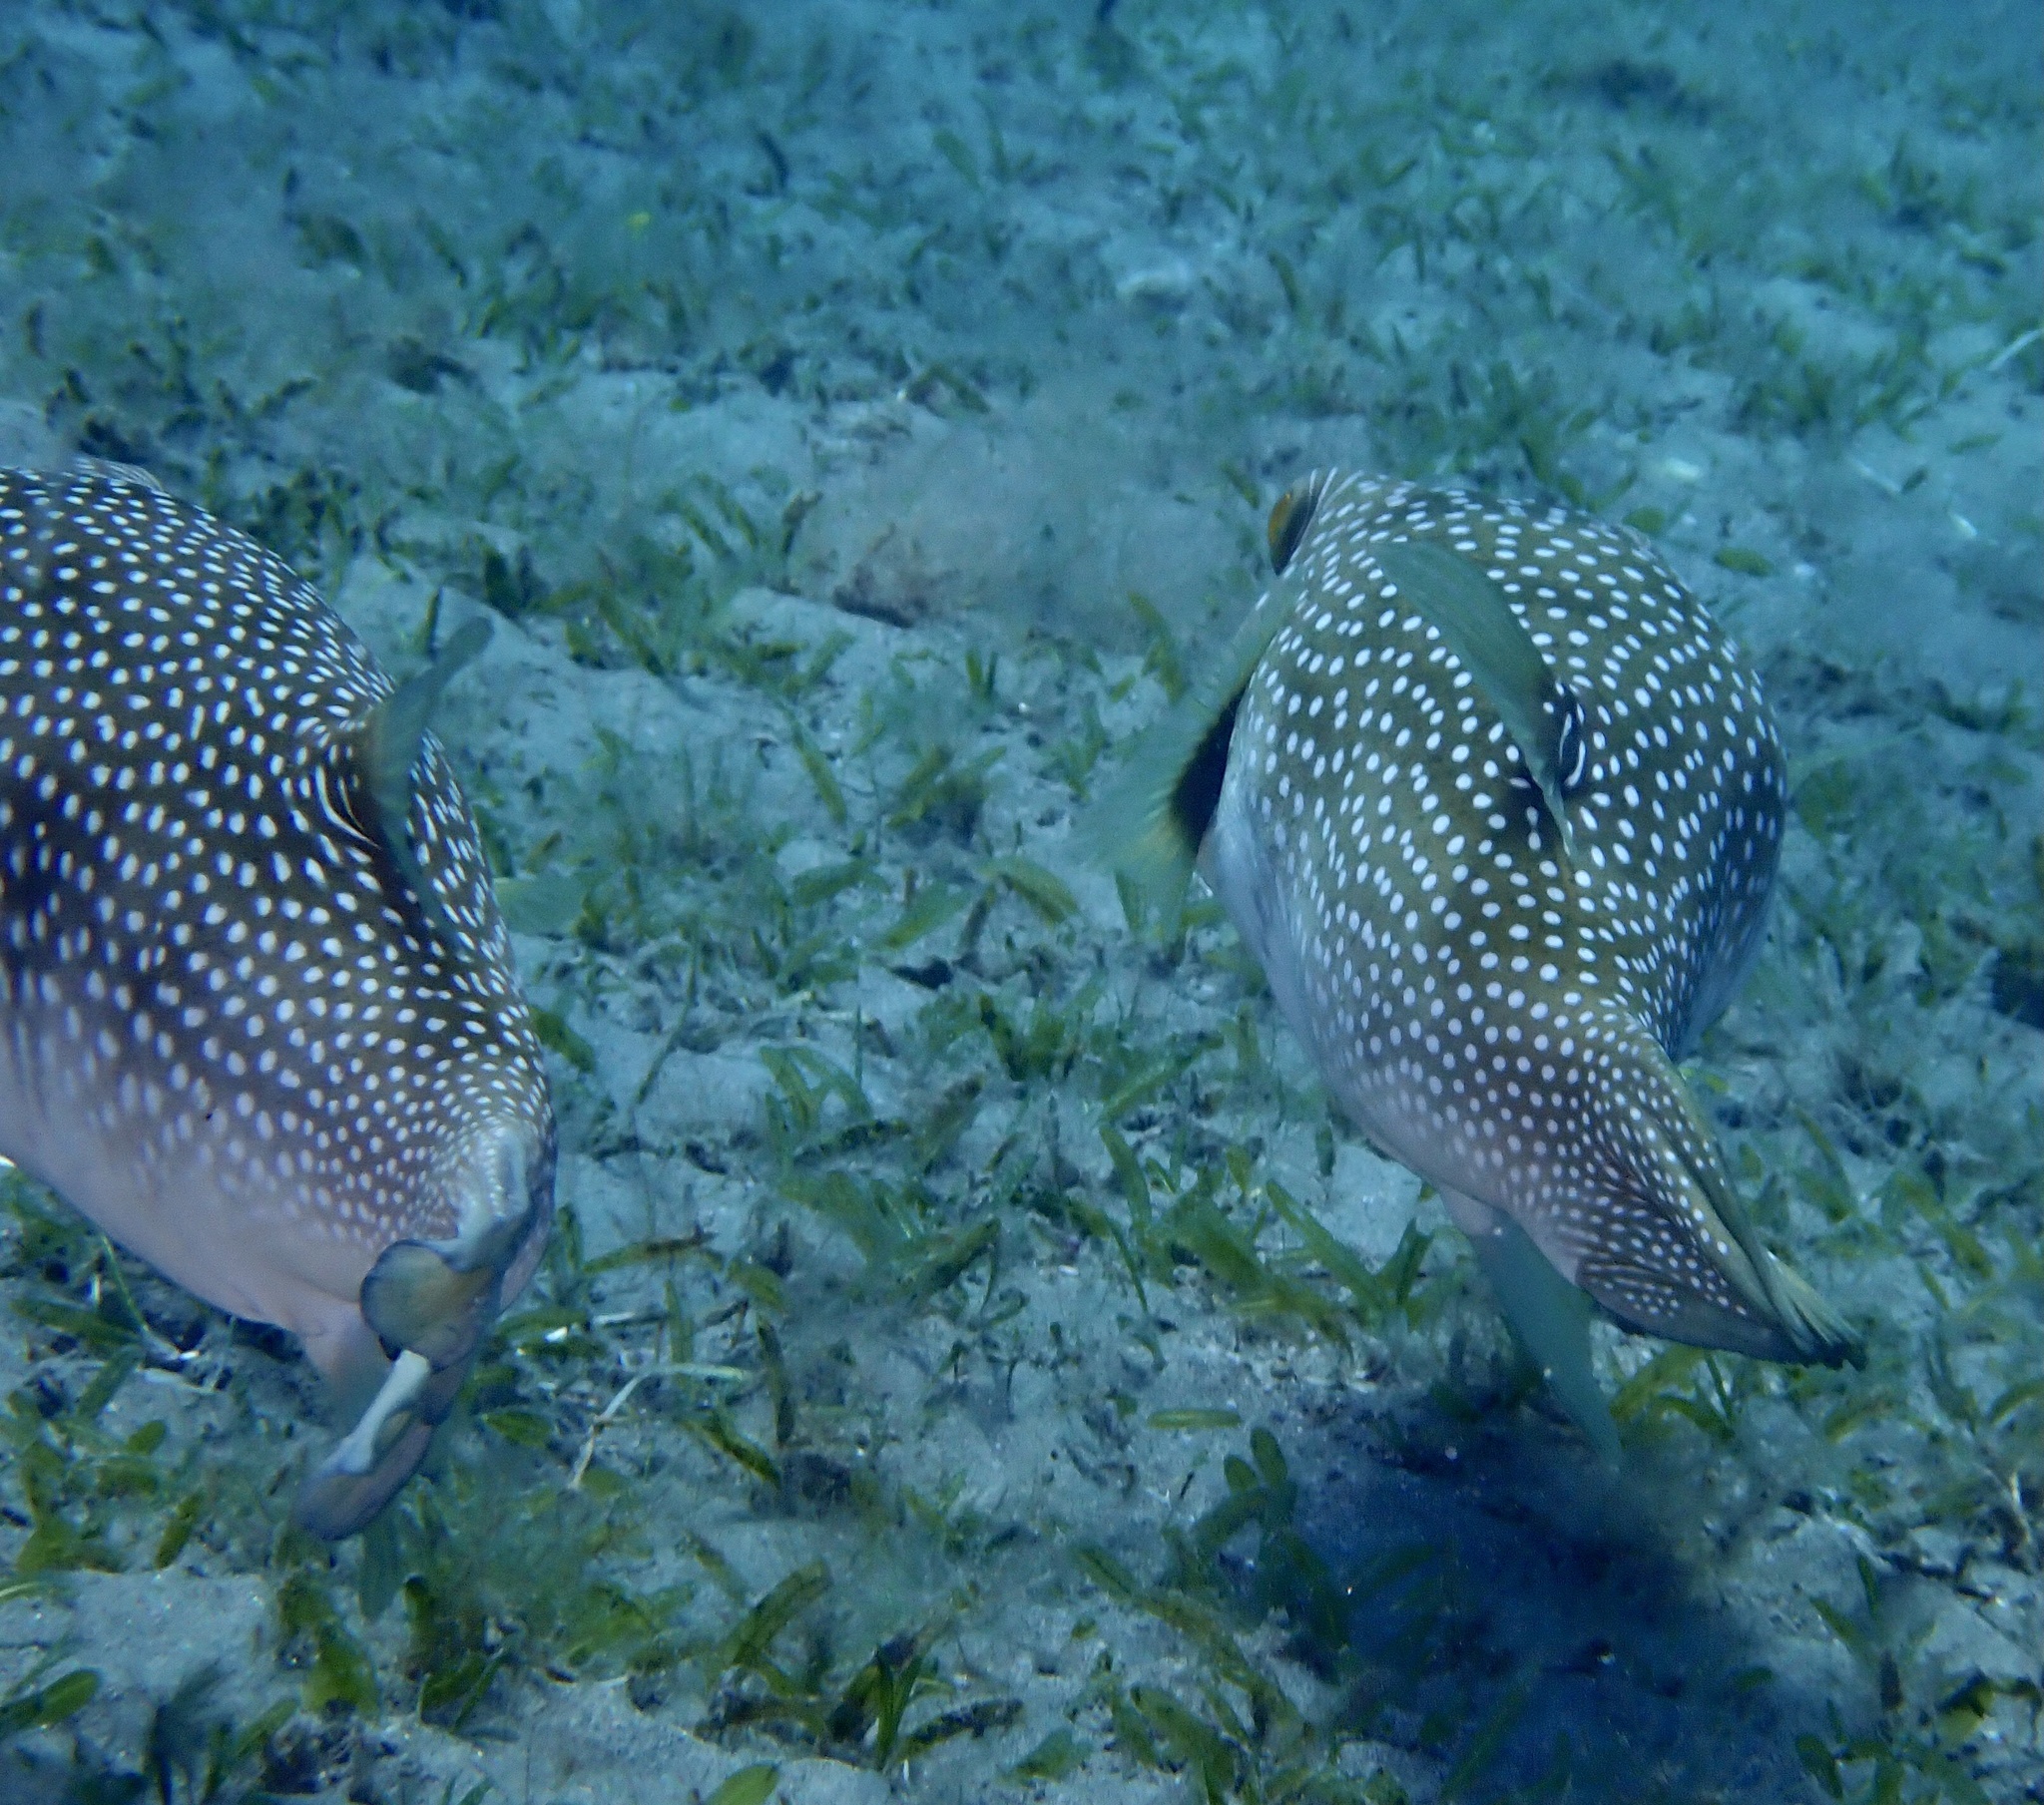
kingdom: Animalia
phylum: Chordata
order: Tetraodontiformes
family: Tetraodontidae
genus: Arothron
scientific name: Arothron hispidus
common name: Stripebelly puffer
